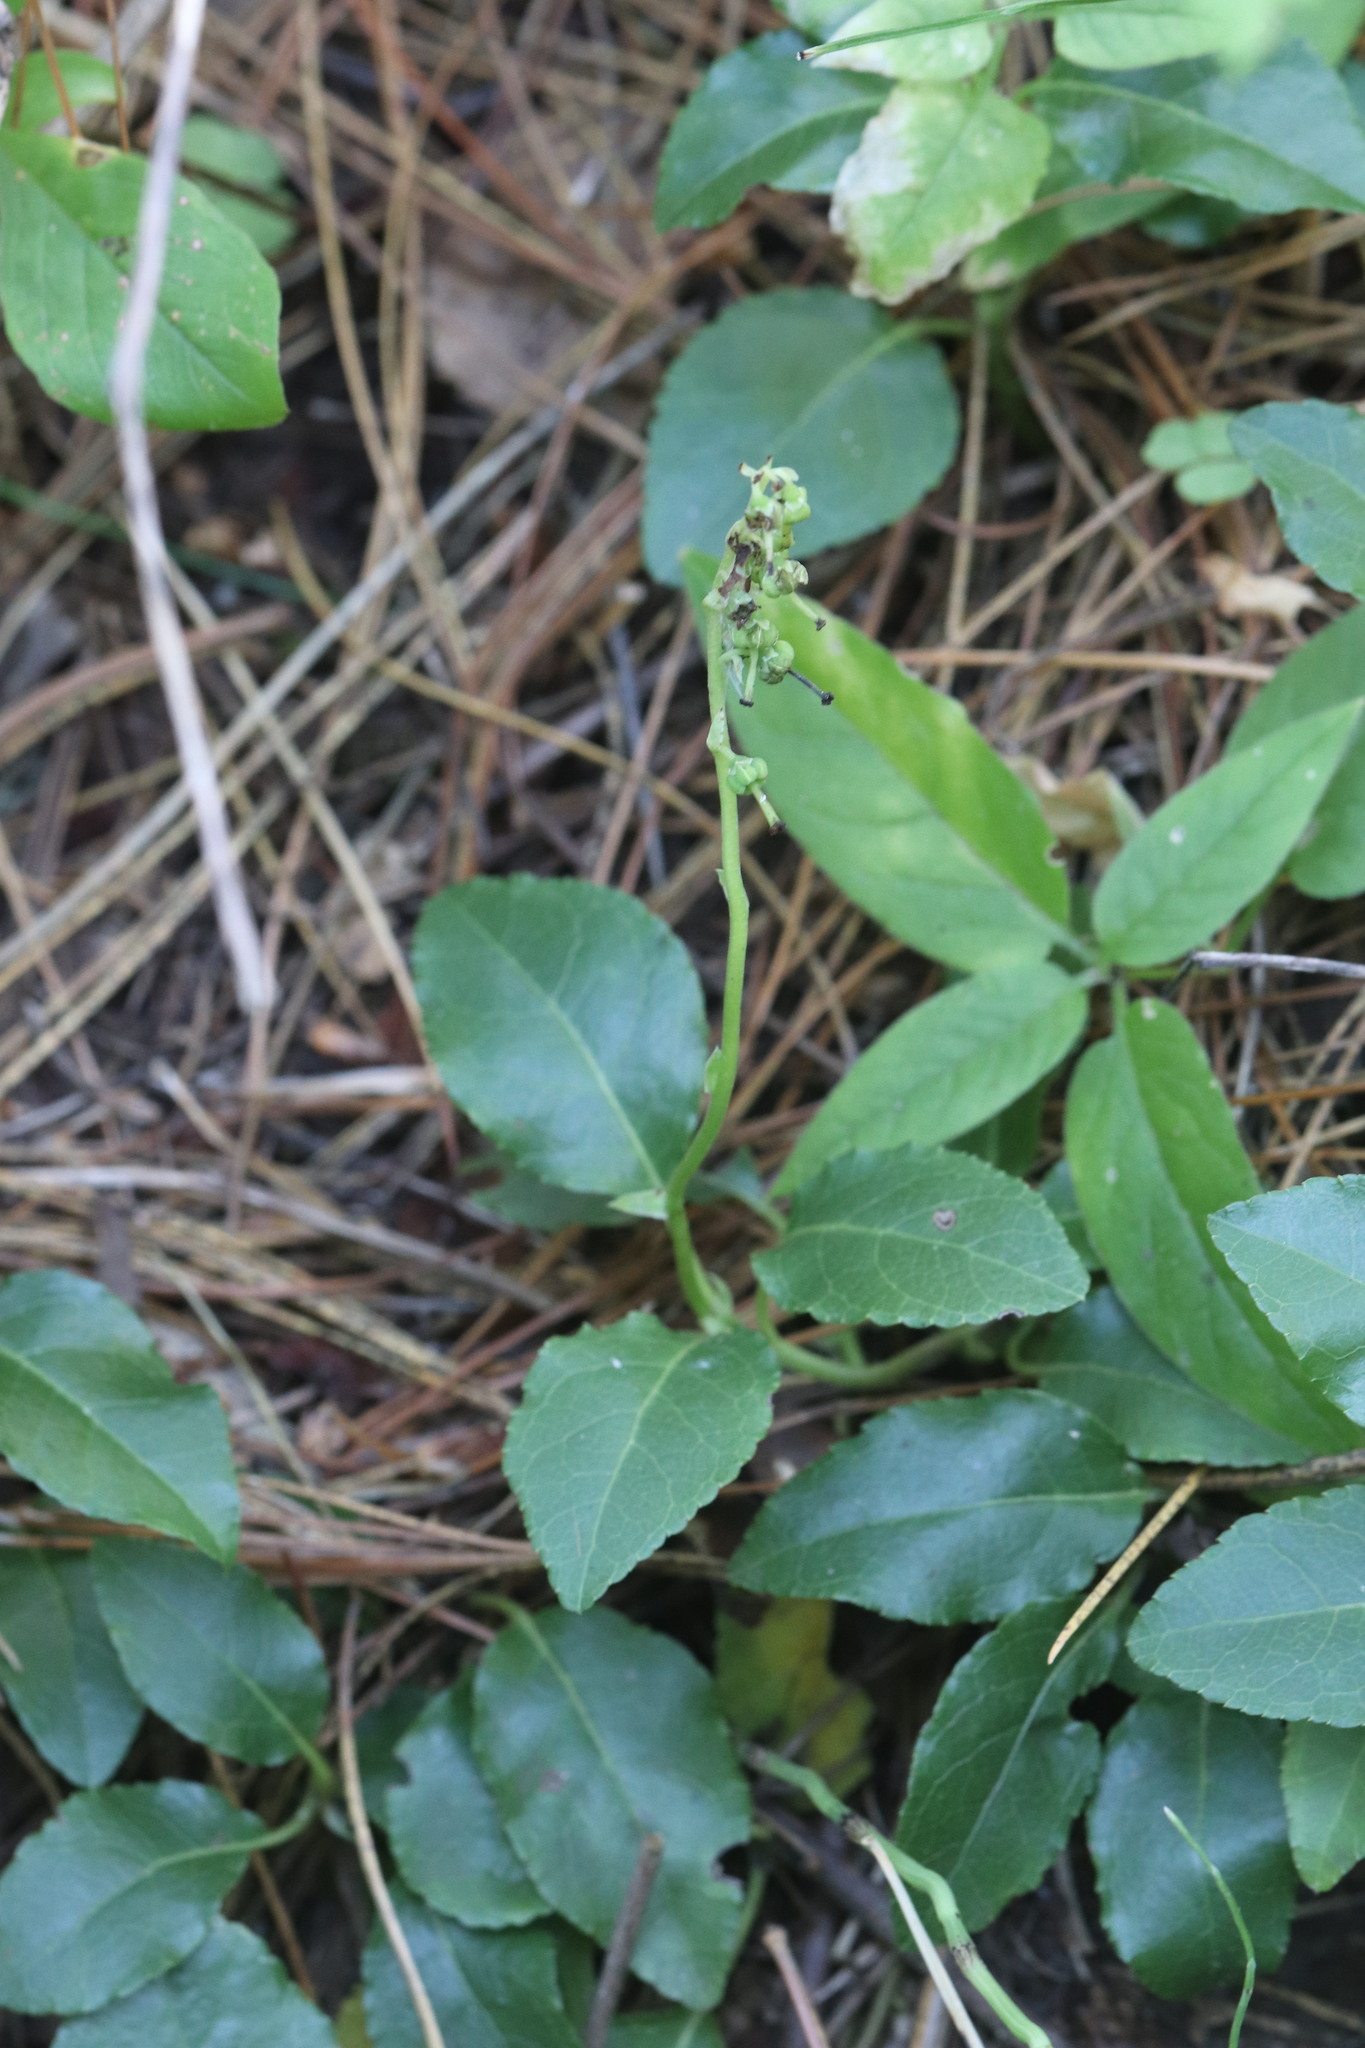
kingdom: Plantae
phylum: Tracheophyta
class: Magnoliopsida
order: Ericales
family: Ericaceae
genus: Orthilia
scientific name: Orthilia secunda
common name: One-sided orthilia
